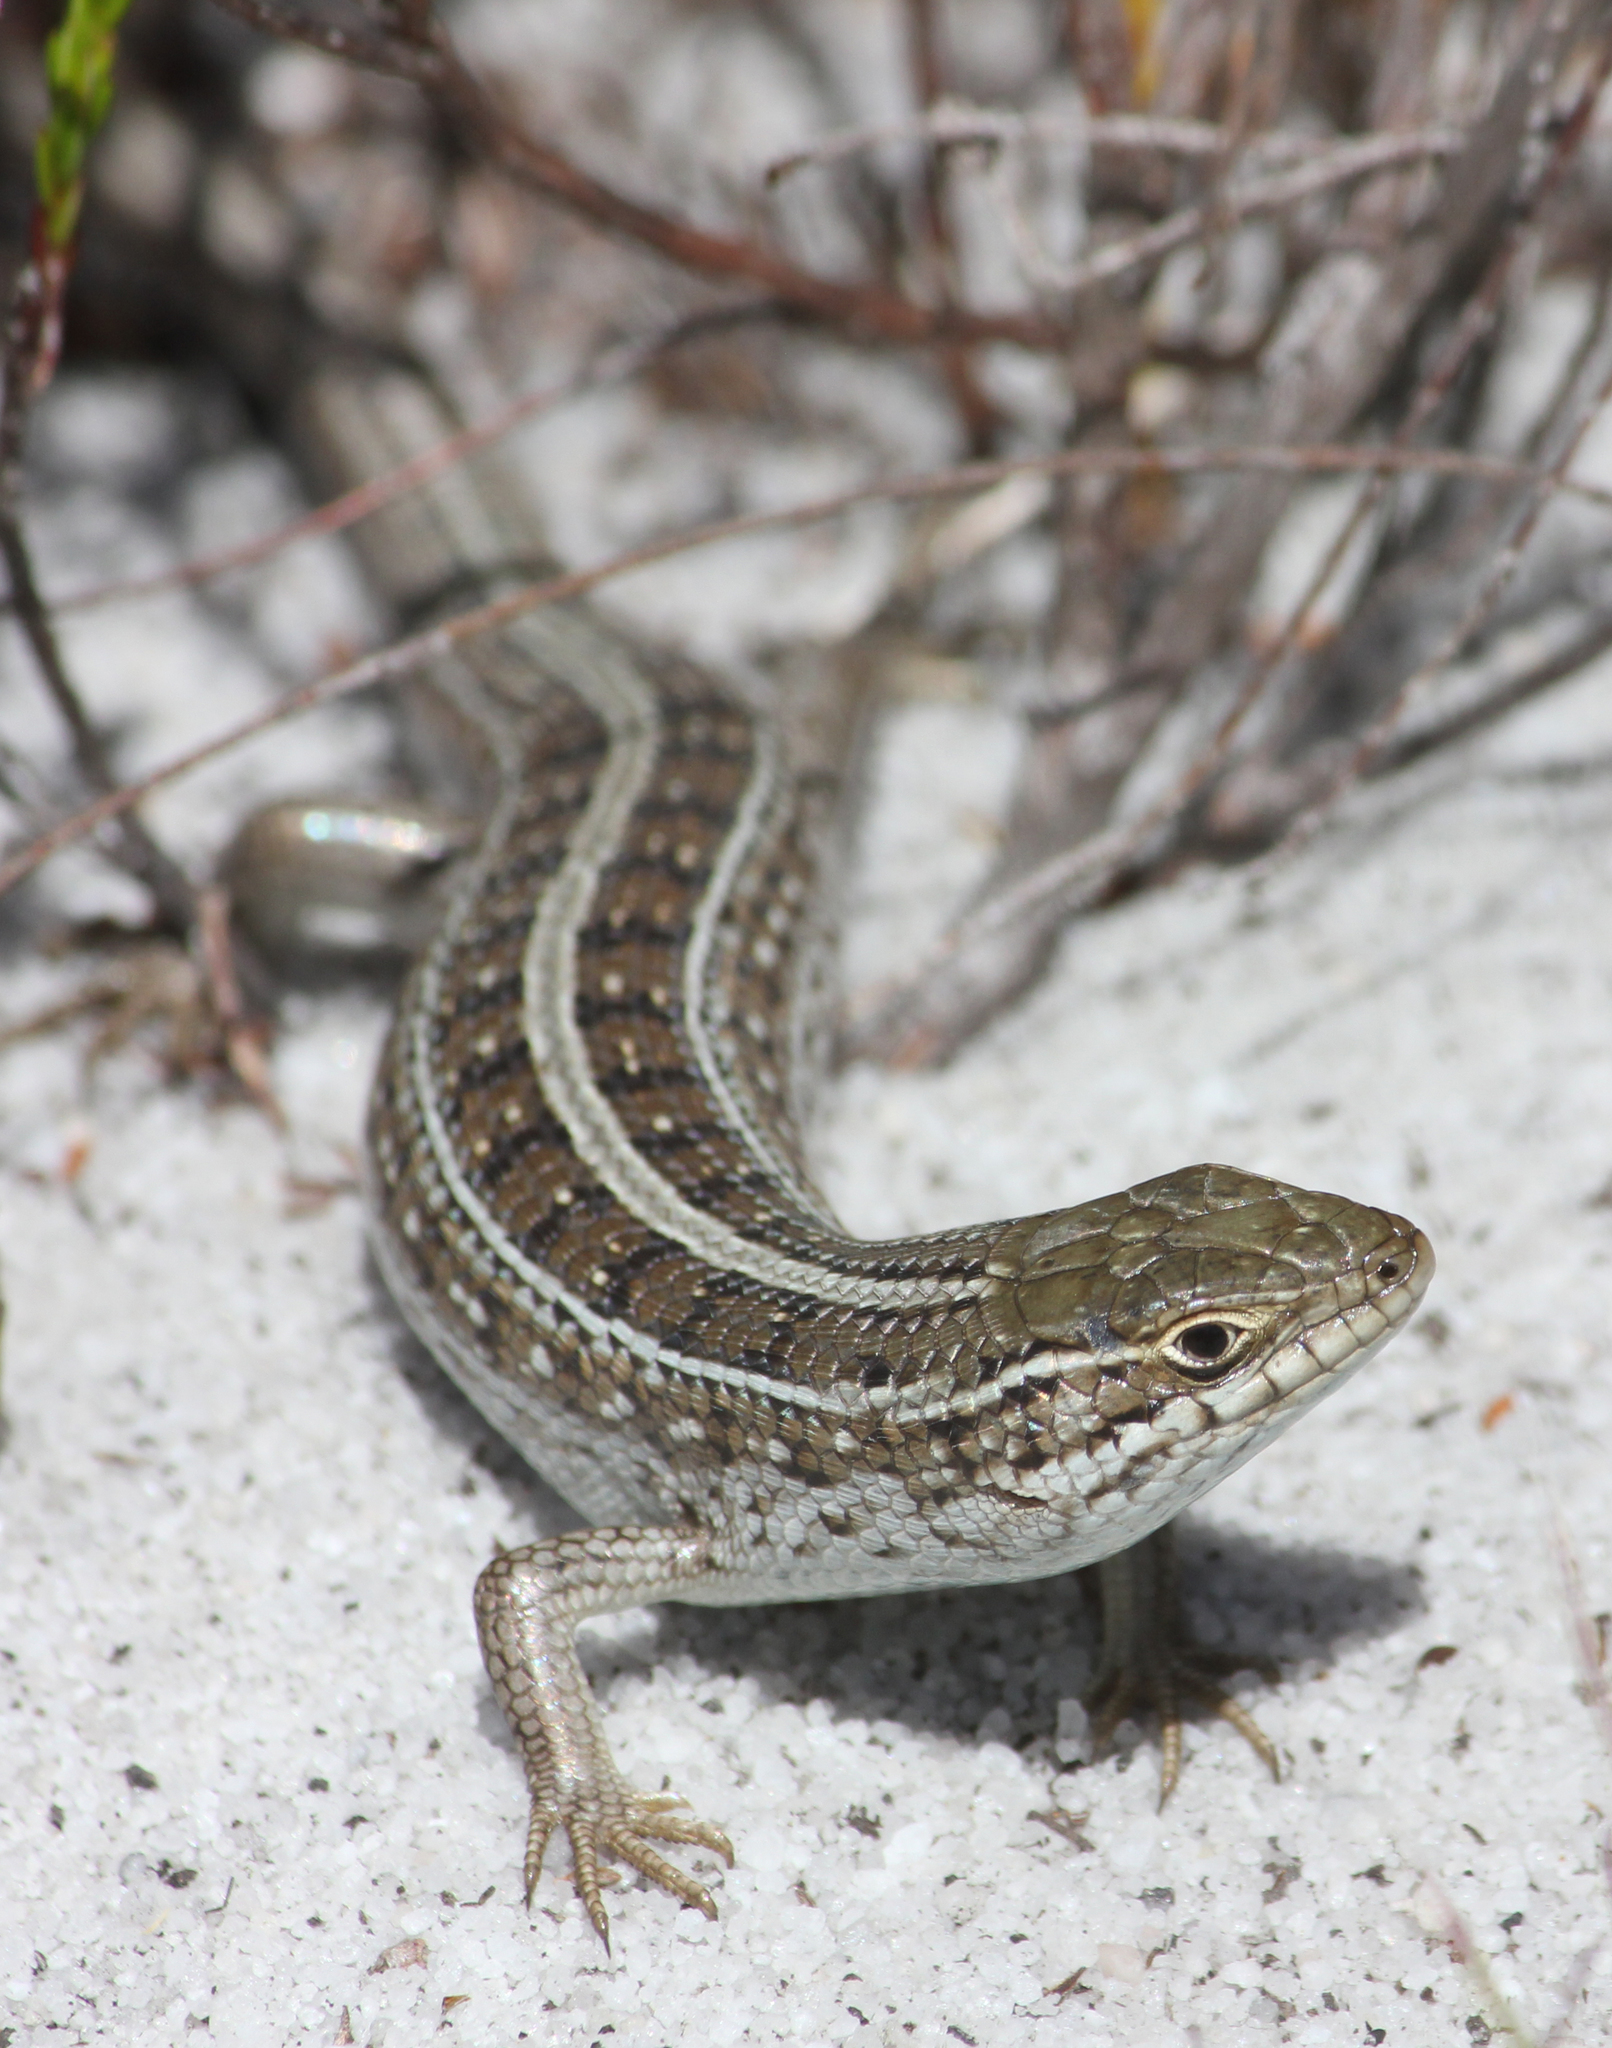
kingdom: Animalia
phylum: Chordata
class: Squamata
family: Scincidae
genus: Trachylepis
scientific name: Trachylepis capensis
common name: Cape skink
